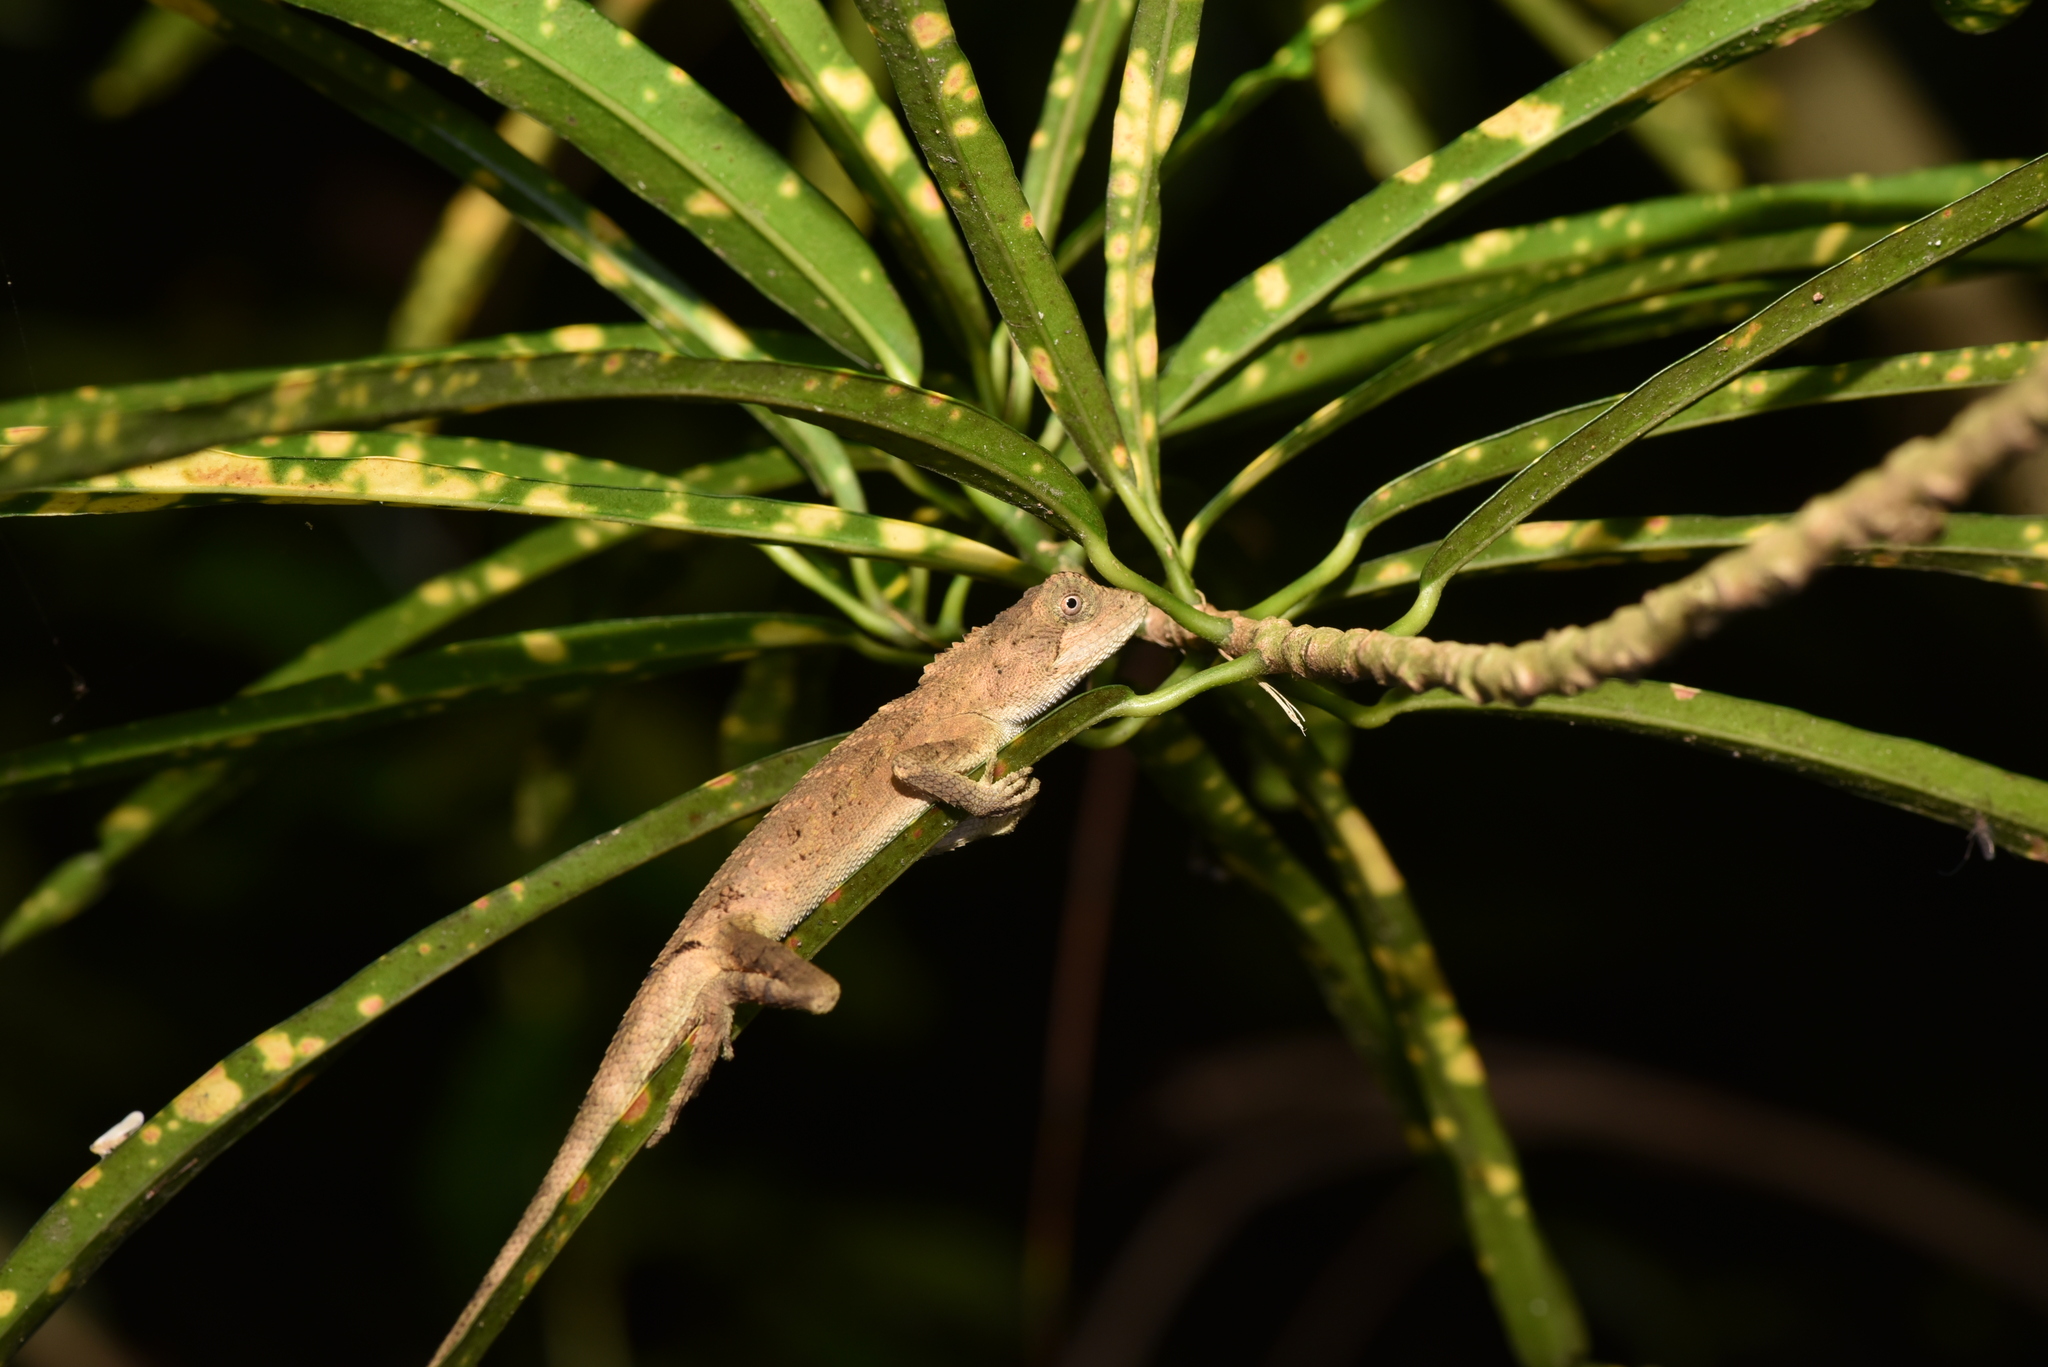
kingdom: Animalia
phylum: Chordata
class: Squamata
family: Agamidae
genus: Diploderma
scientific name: Diploderma swinhonis
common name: Taiwan japalure
